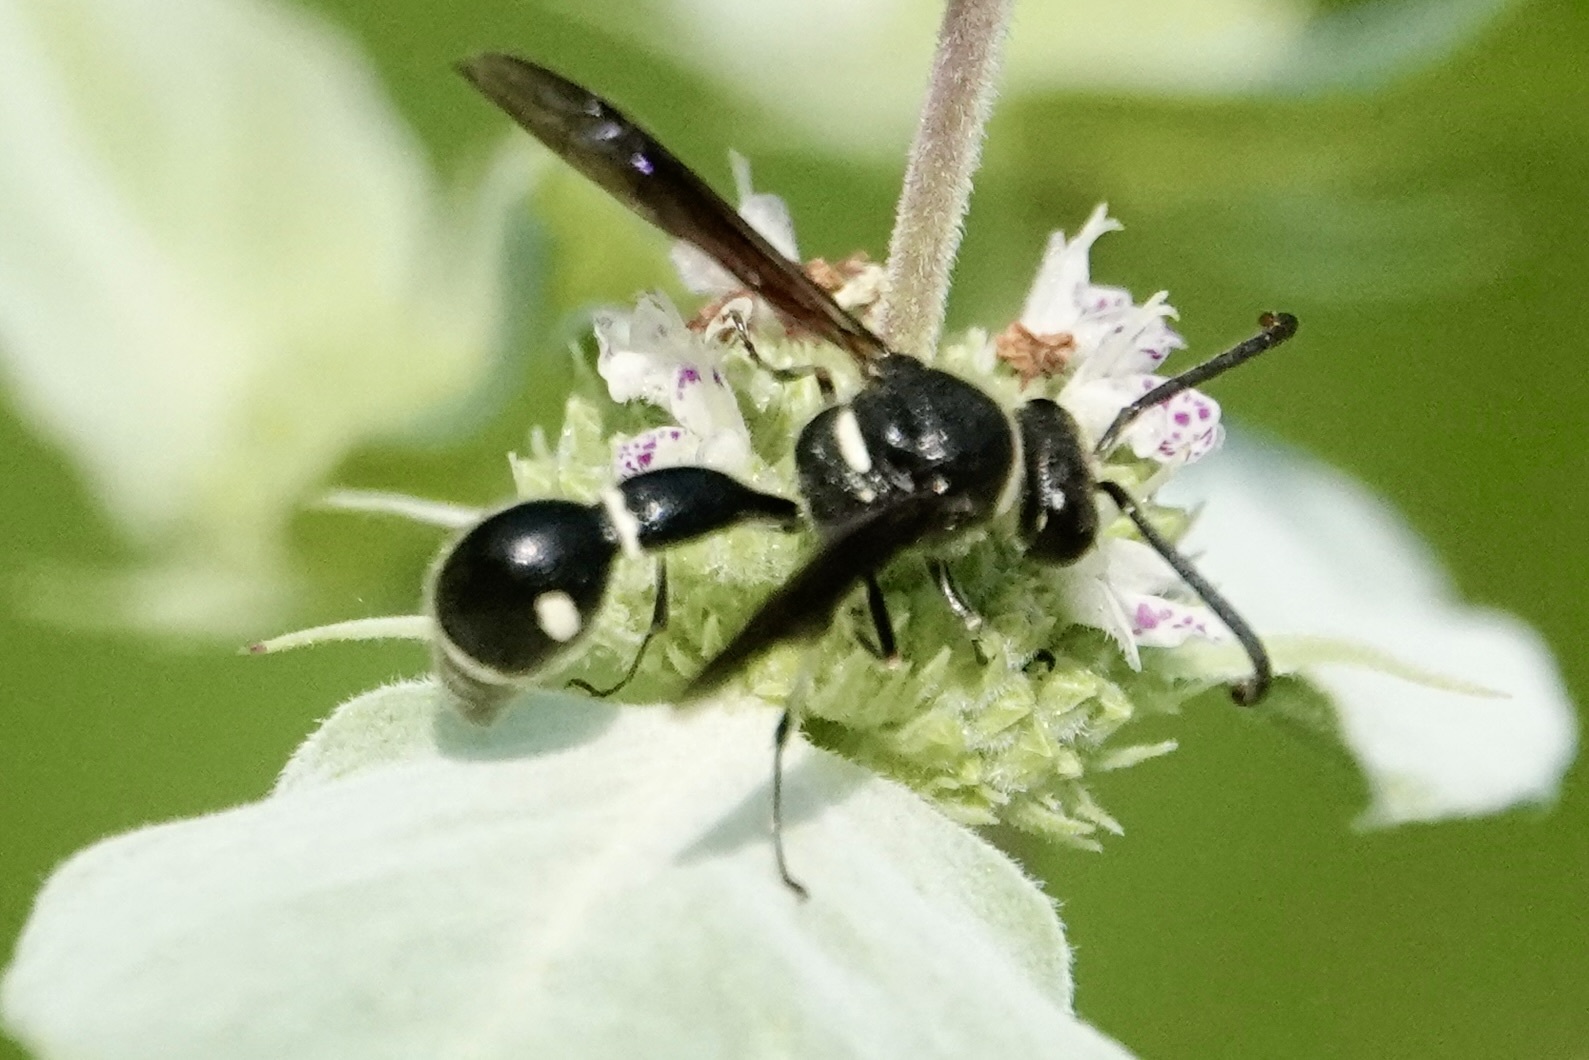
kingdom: Animalia
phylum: Arthropoda
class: Insecta
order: Hymenoptera
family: Vespidae
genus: Eumenes
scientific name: Eumenes fraternus
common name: Fraternal potter wasp
